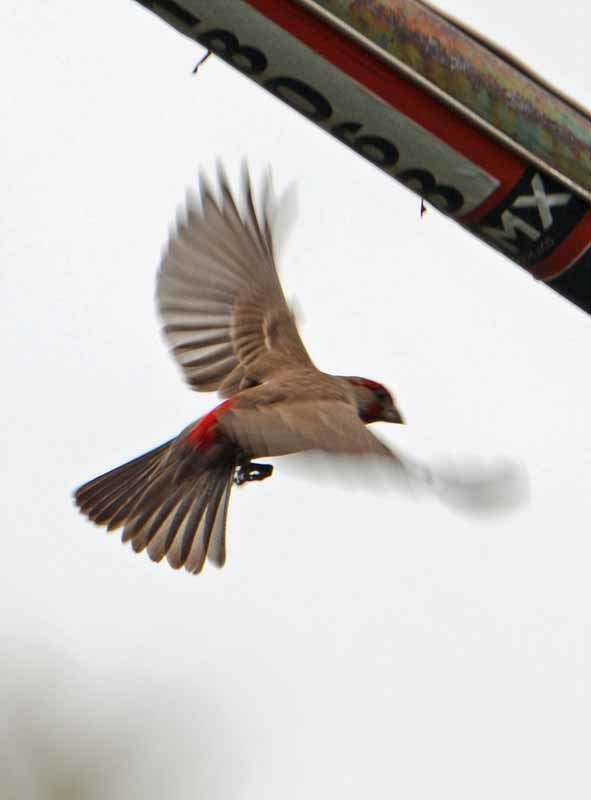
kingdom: Animalia
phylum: Chordata
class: Aves
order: Passeriformes
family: Fringillidae
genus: Haemorhous
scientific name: Haemorhous mexicanus
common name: House finch
